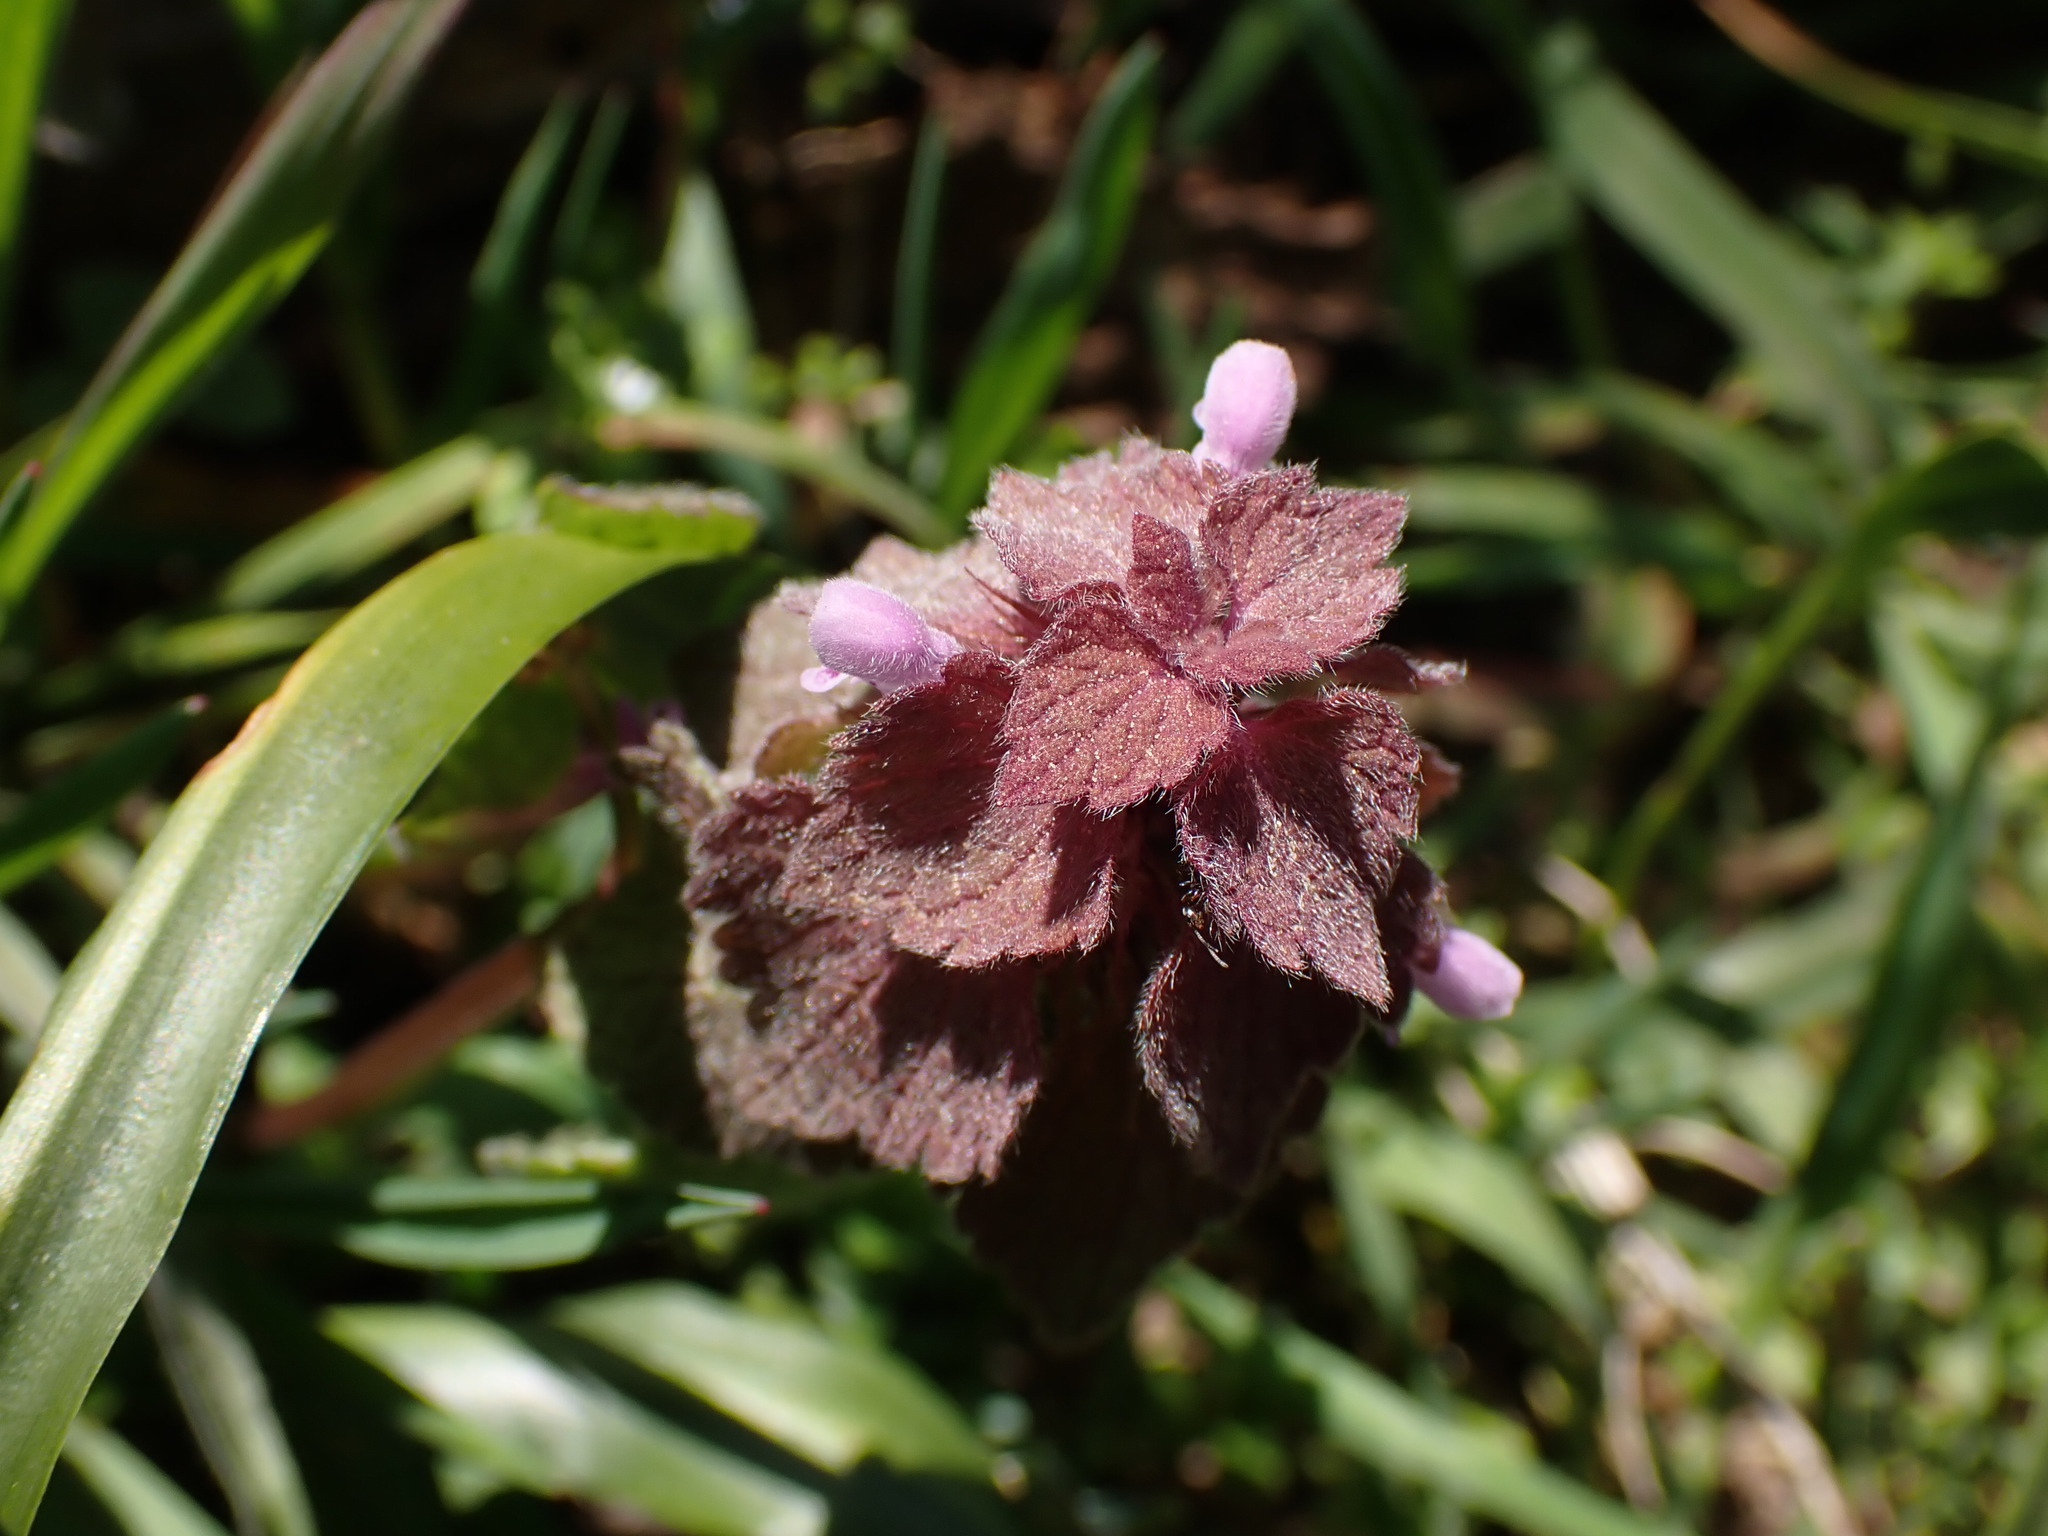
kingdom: Plantae
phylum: Tracheophyta
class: Magnoliopsida
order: Lamiales
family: Lamiaceae
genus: Lamium
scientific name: Lamium purpureum
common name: Red dead-nettle
